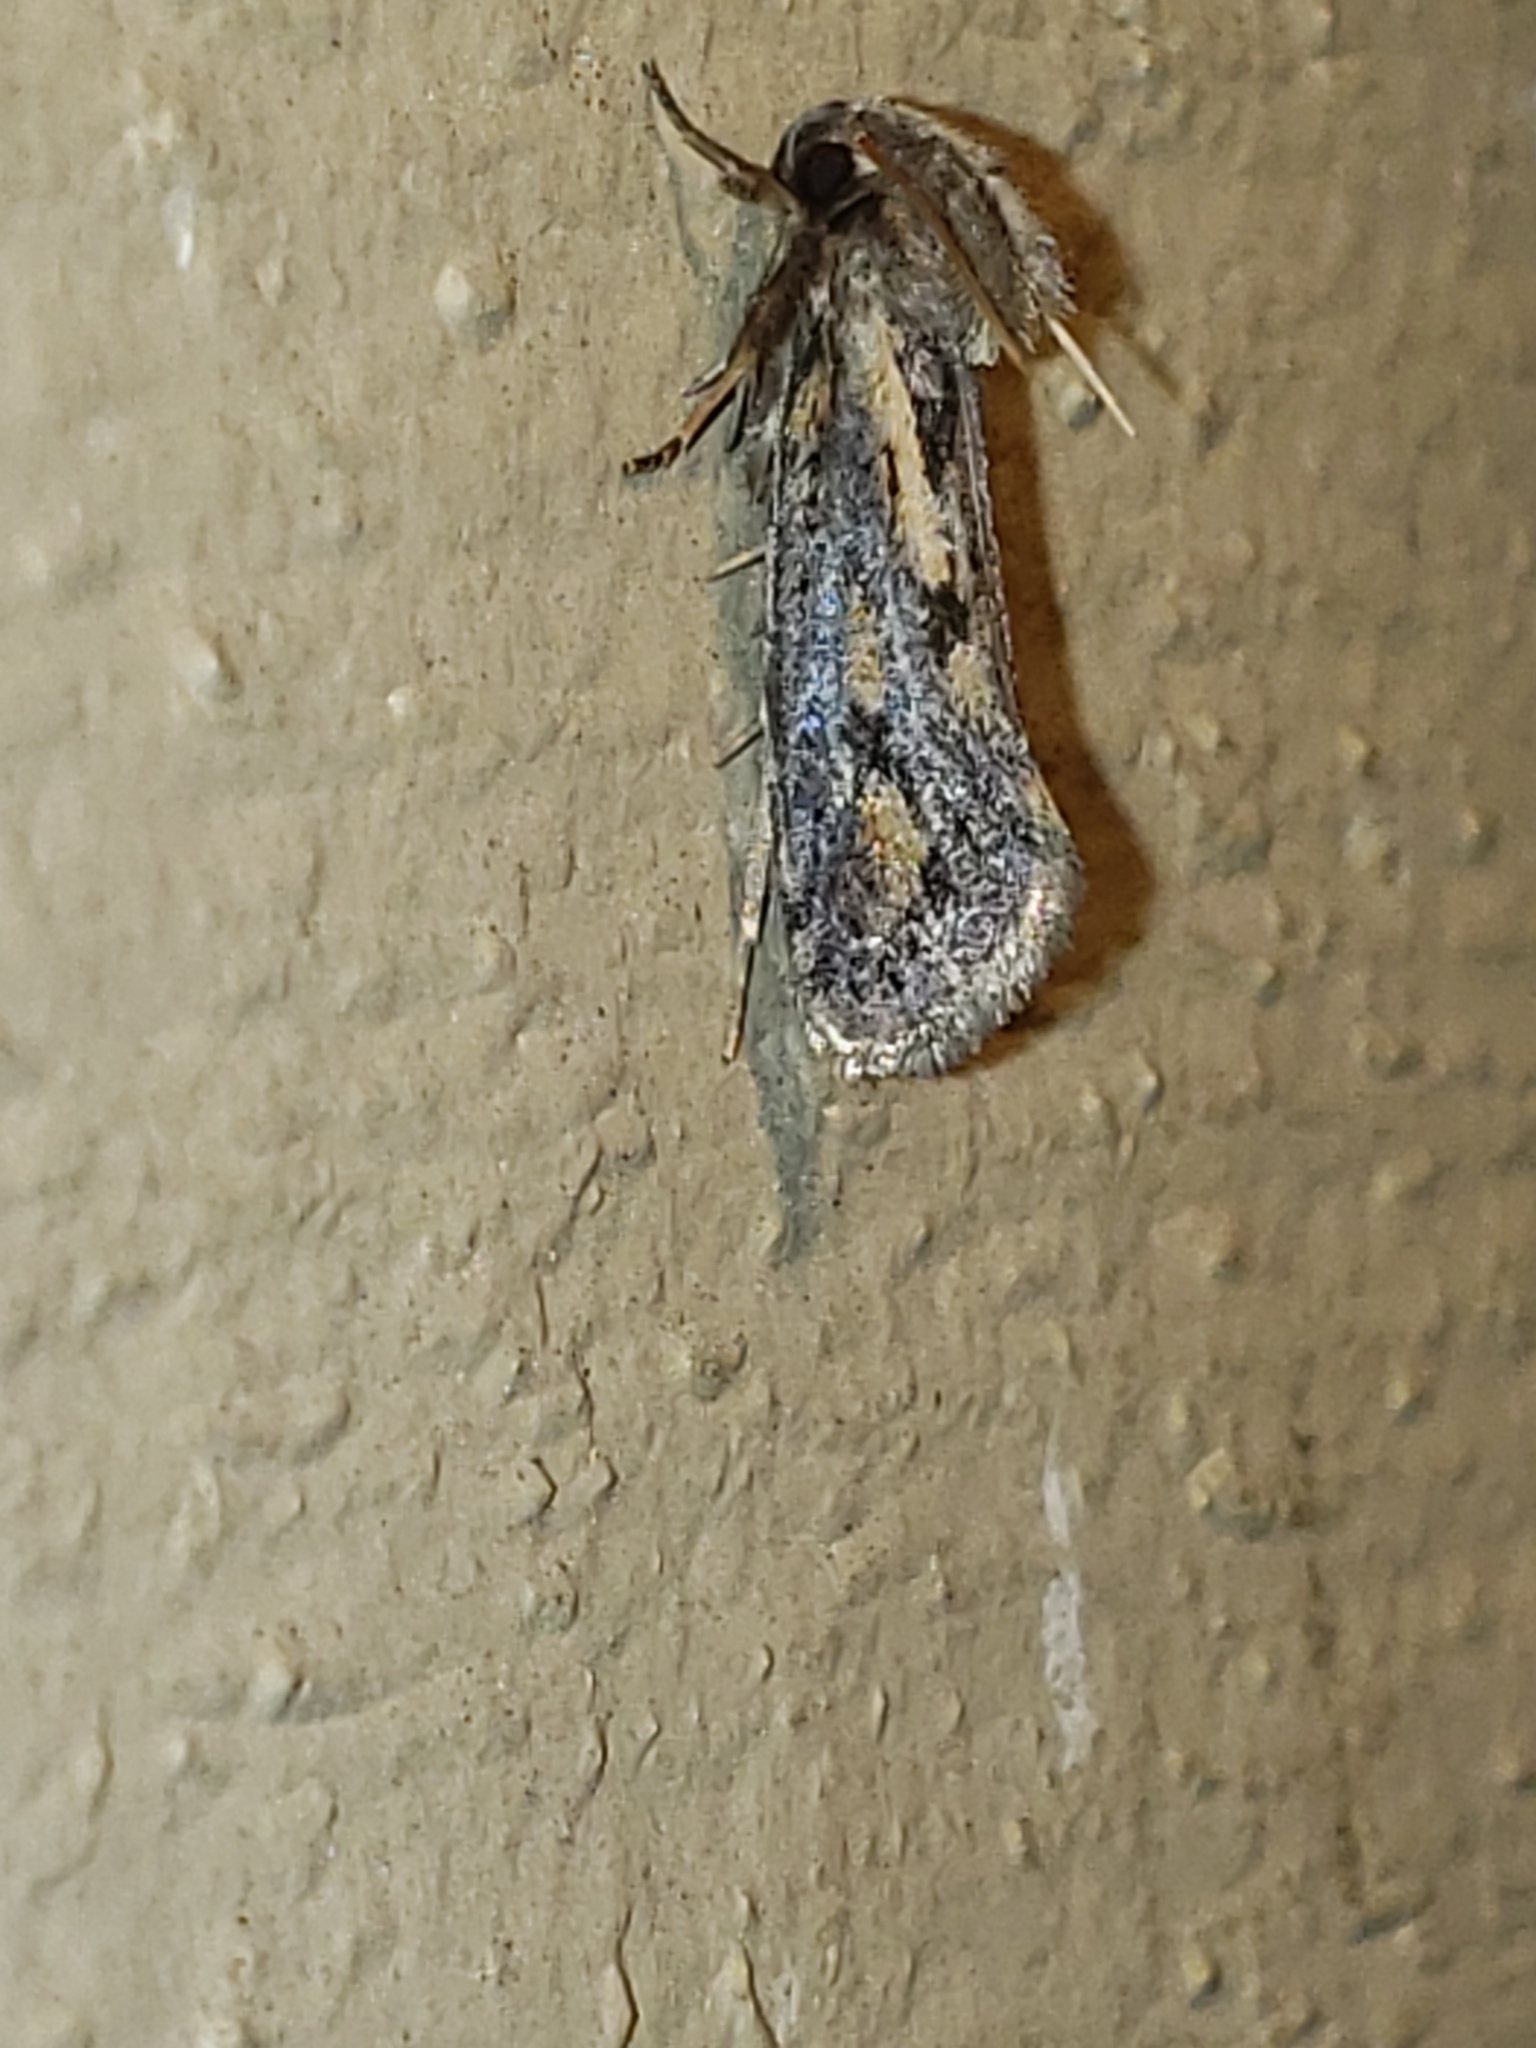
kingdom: Animalia
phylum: Arthropoda
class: Insecta
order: Lepidoptera
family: Tineidae
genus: Acrolophus
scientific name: Acrolophus popeanella
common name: Clemens' grass tubeworm moth
